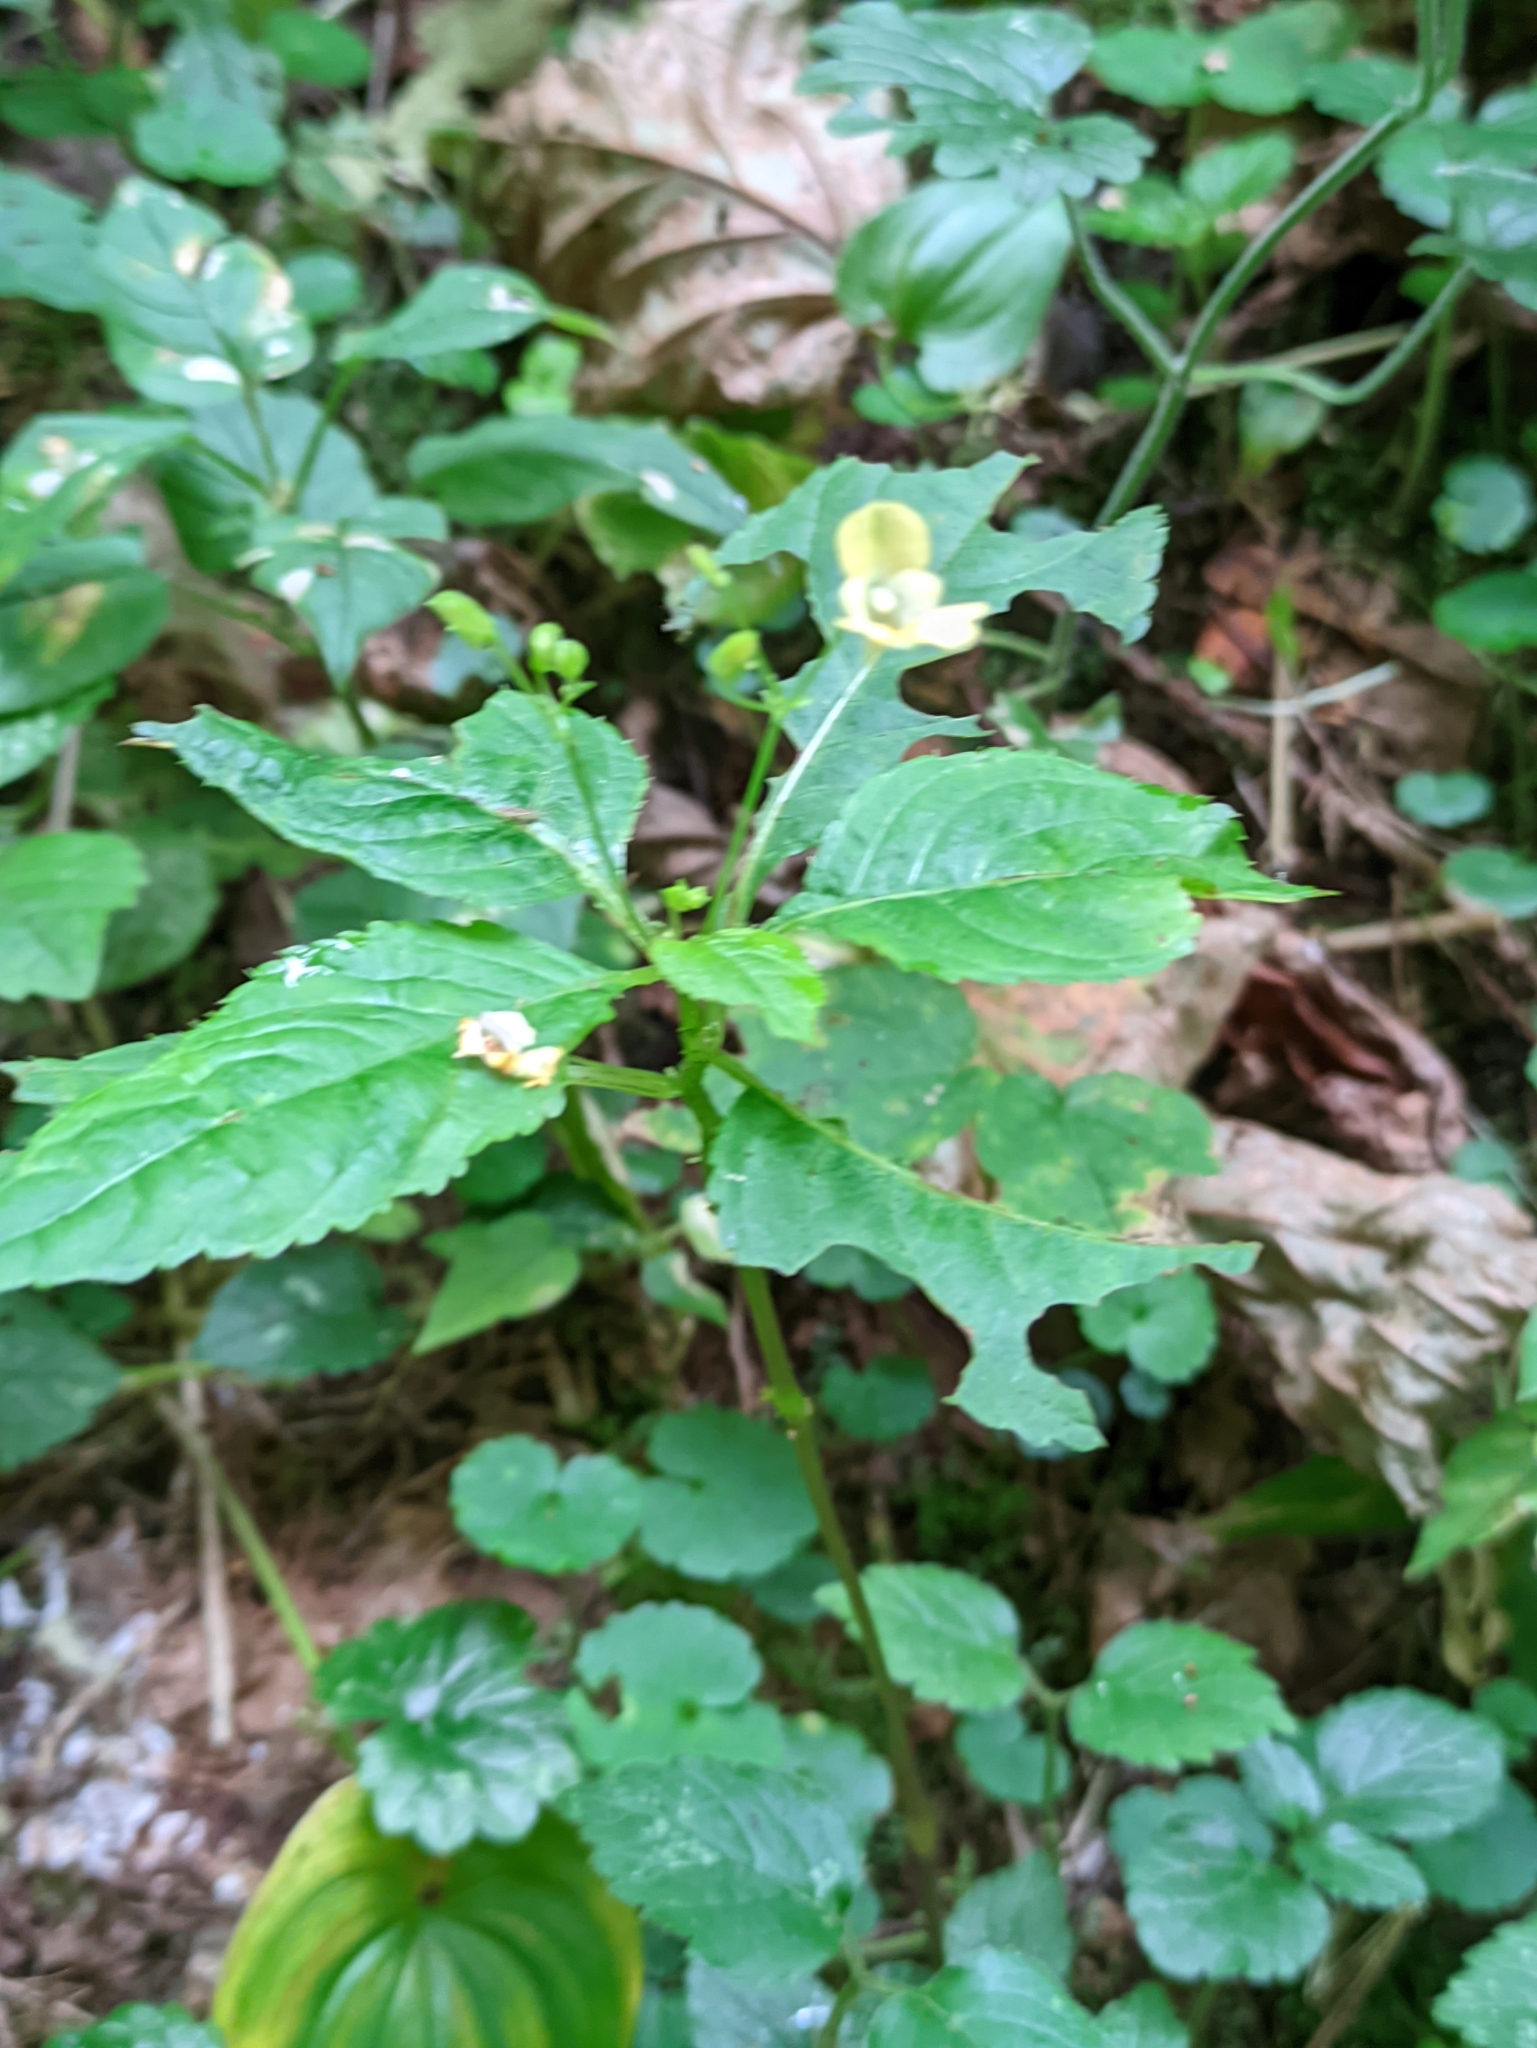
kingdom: Plantae
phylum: Tracheophyta
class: Magnoliopsida
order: Ericales
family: Balsaminaceae
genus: Impatiens
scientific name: Impatiens parviflora
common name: Small balsam
